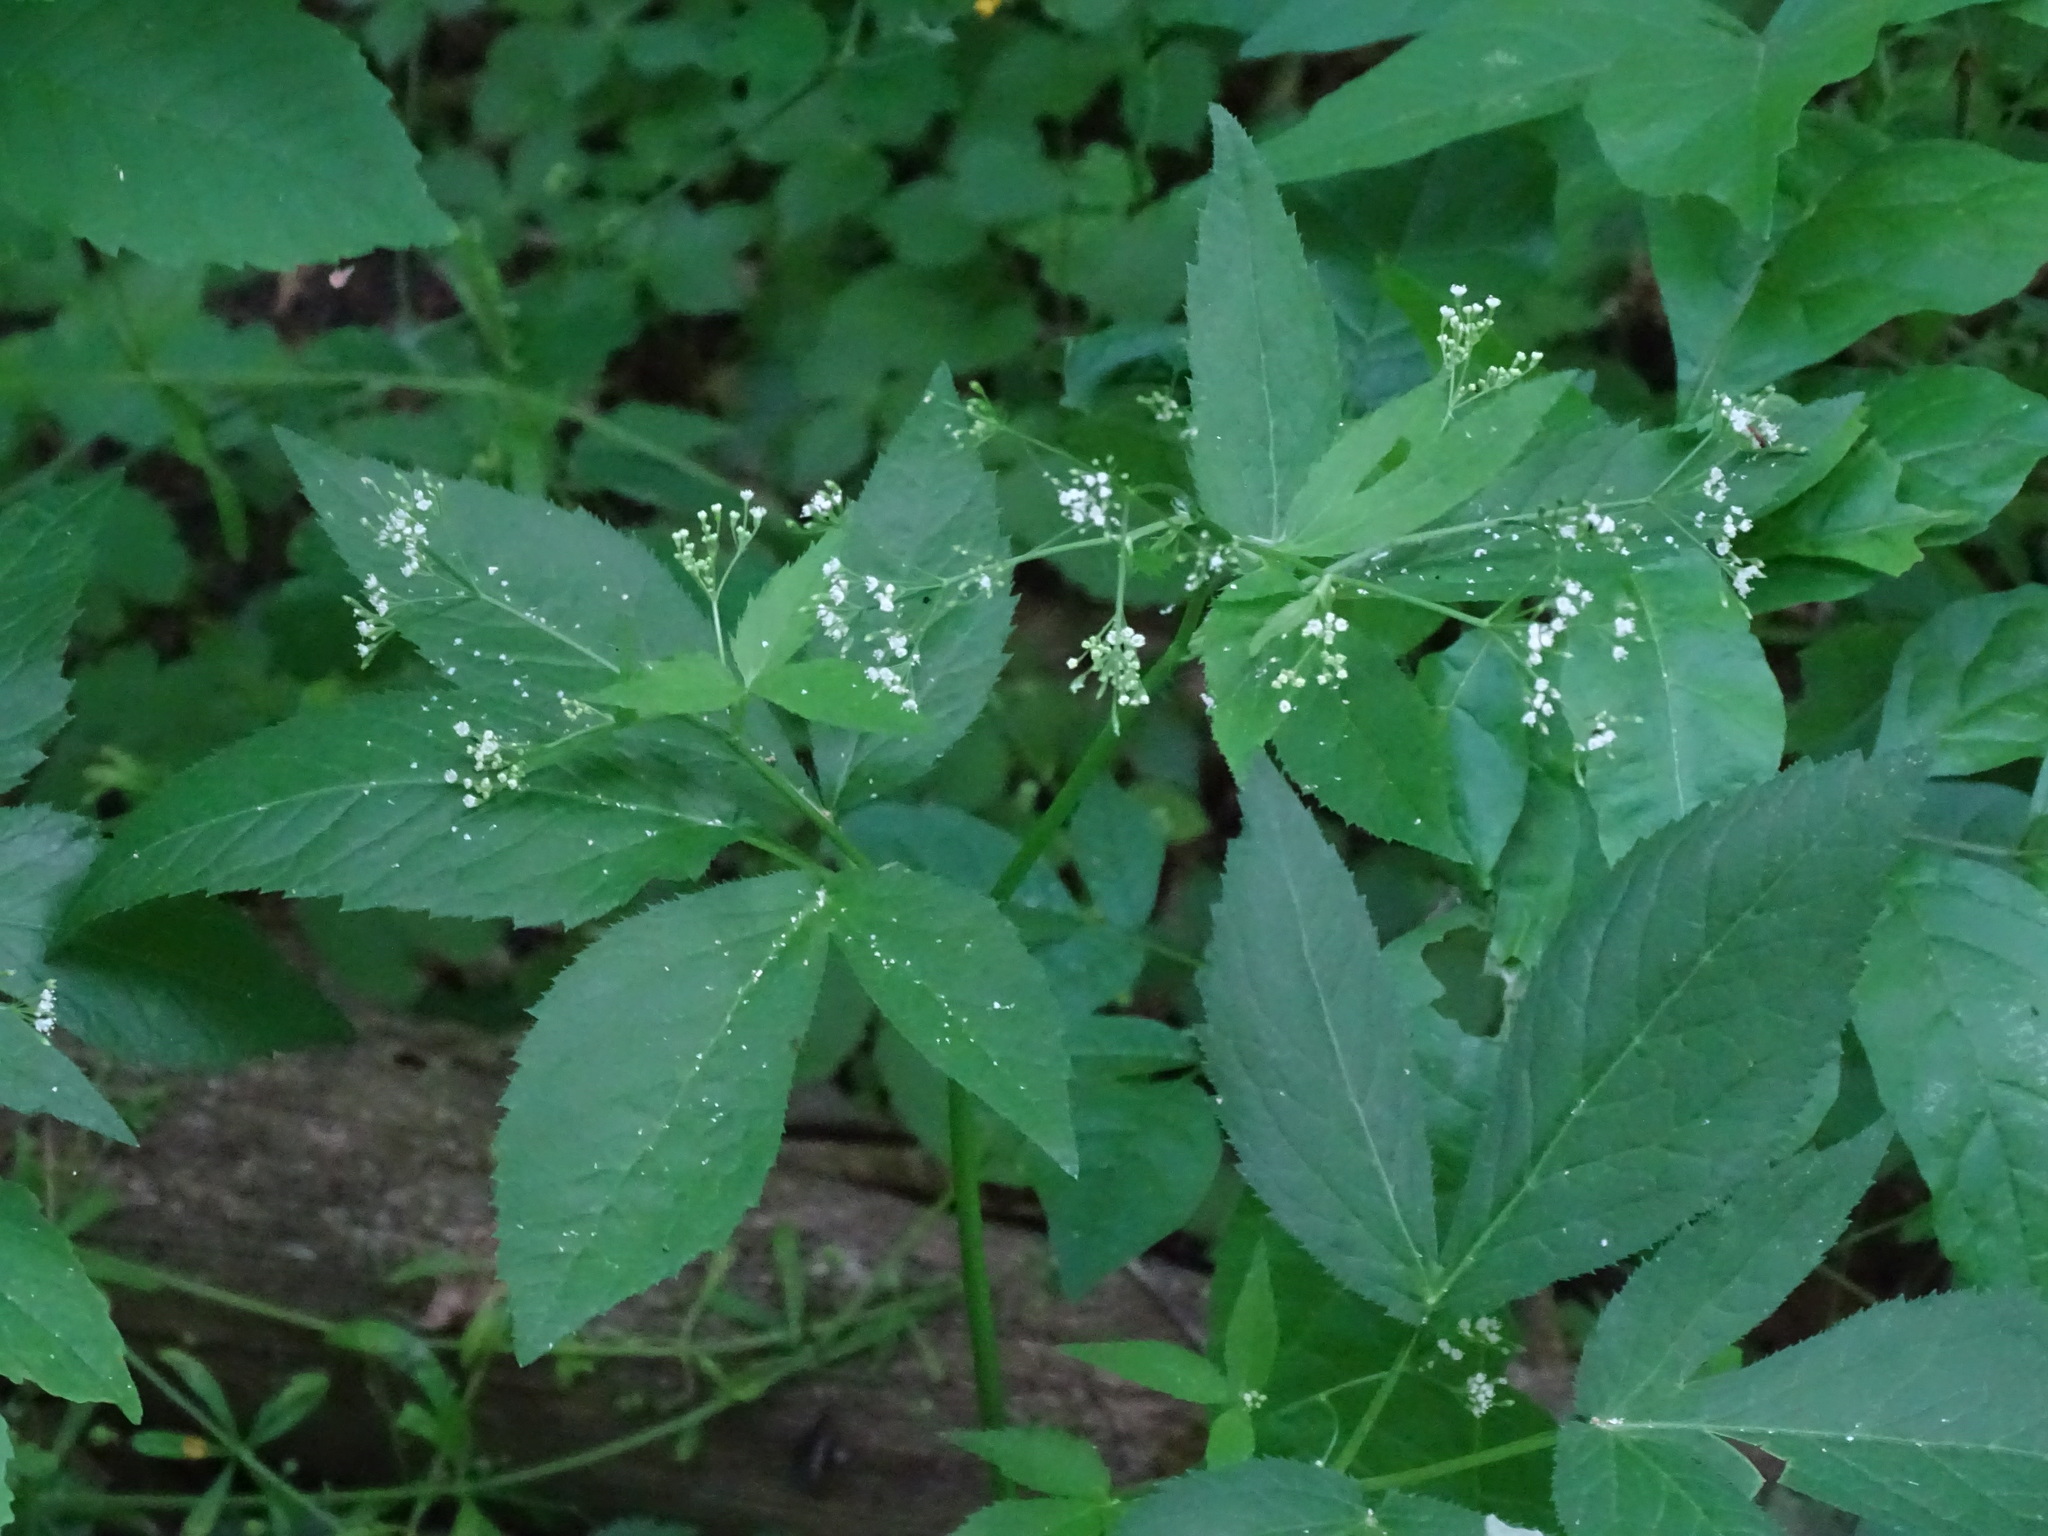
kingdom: Plantae
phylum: Tracheophyta
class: Magnoliopsida
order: Apiales
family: Apiaceae
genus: Cryptotaenia
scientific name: Cryptotaenia canadensis
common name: Honewort
